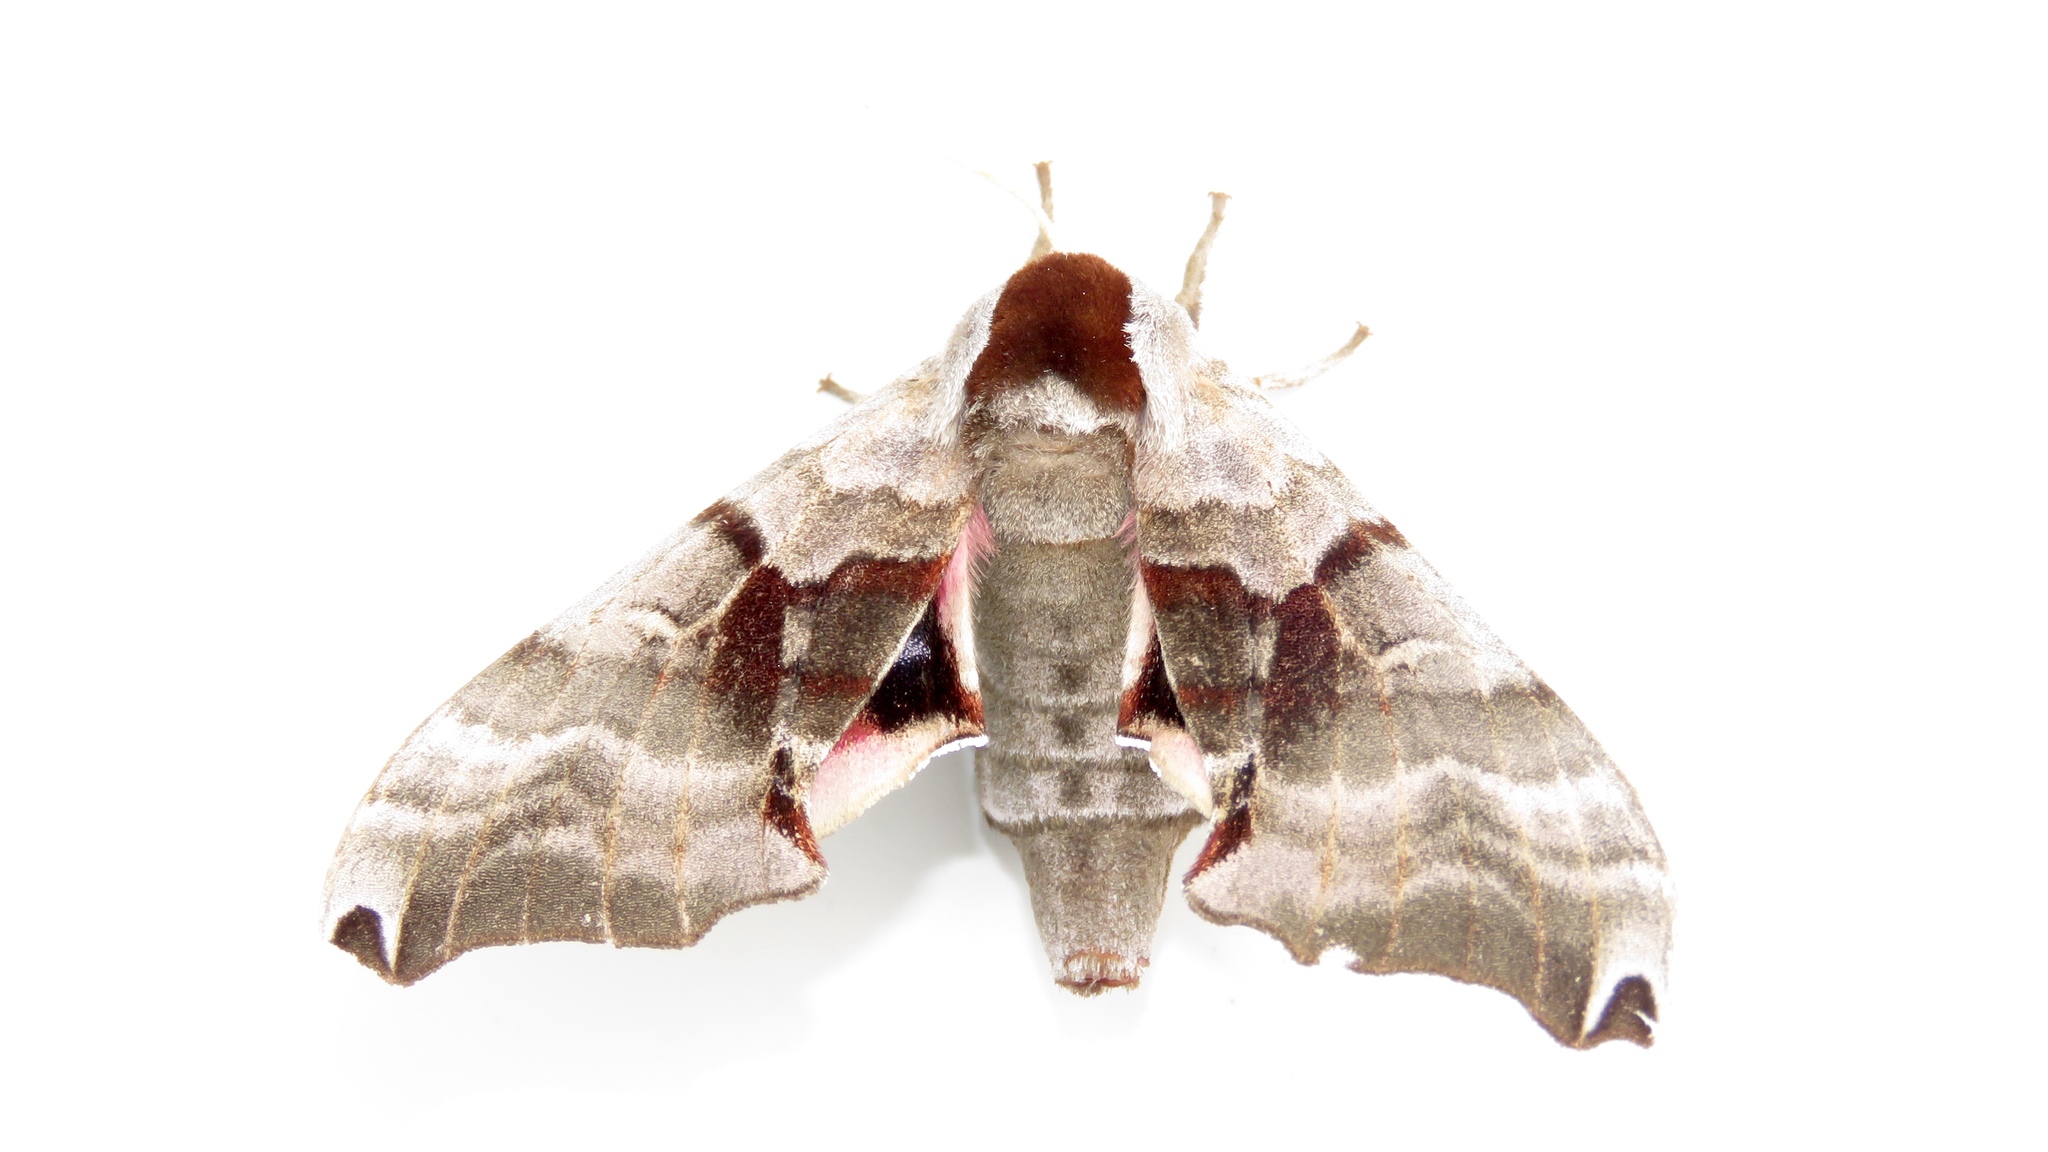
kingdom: Animalia
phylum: Arthropoda
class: Insecta
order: Lepidoptera
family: Sphingidae
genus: Smerinthus
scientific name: Smerinthus jamaicensis
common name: Twin spotted sphinx
